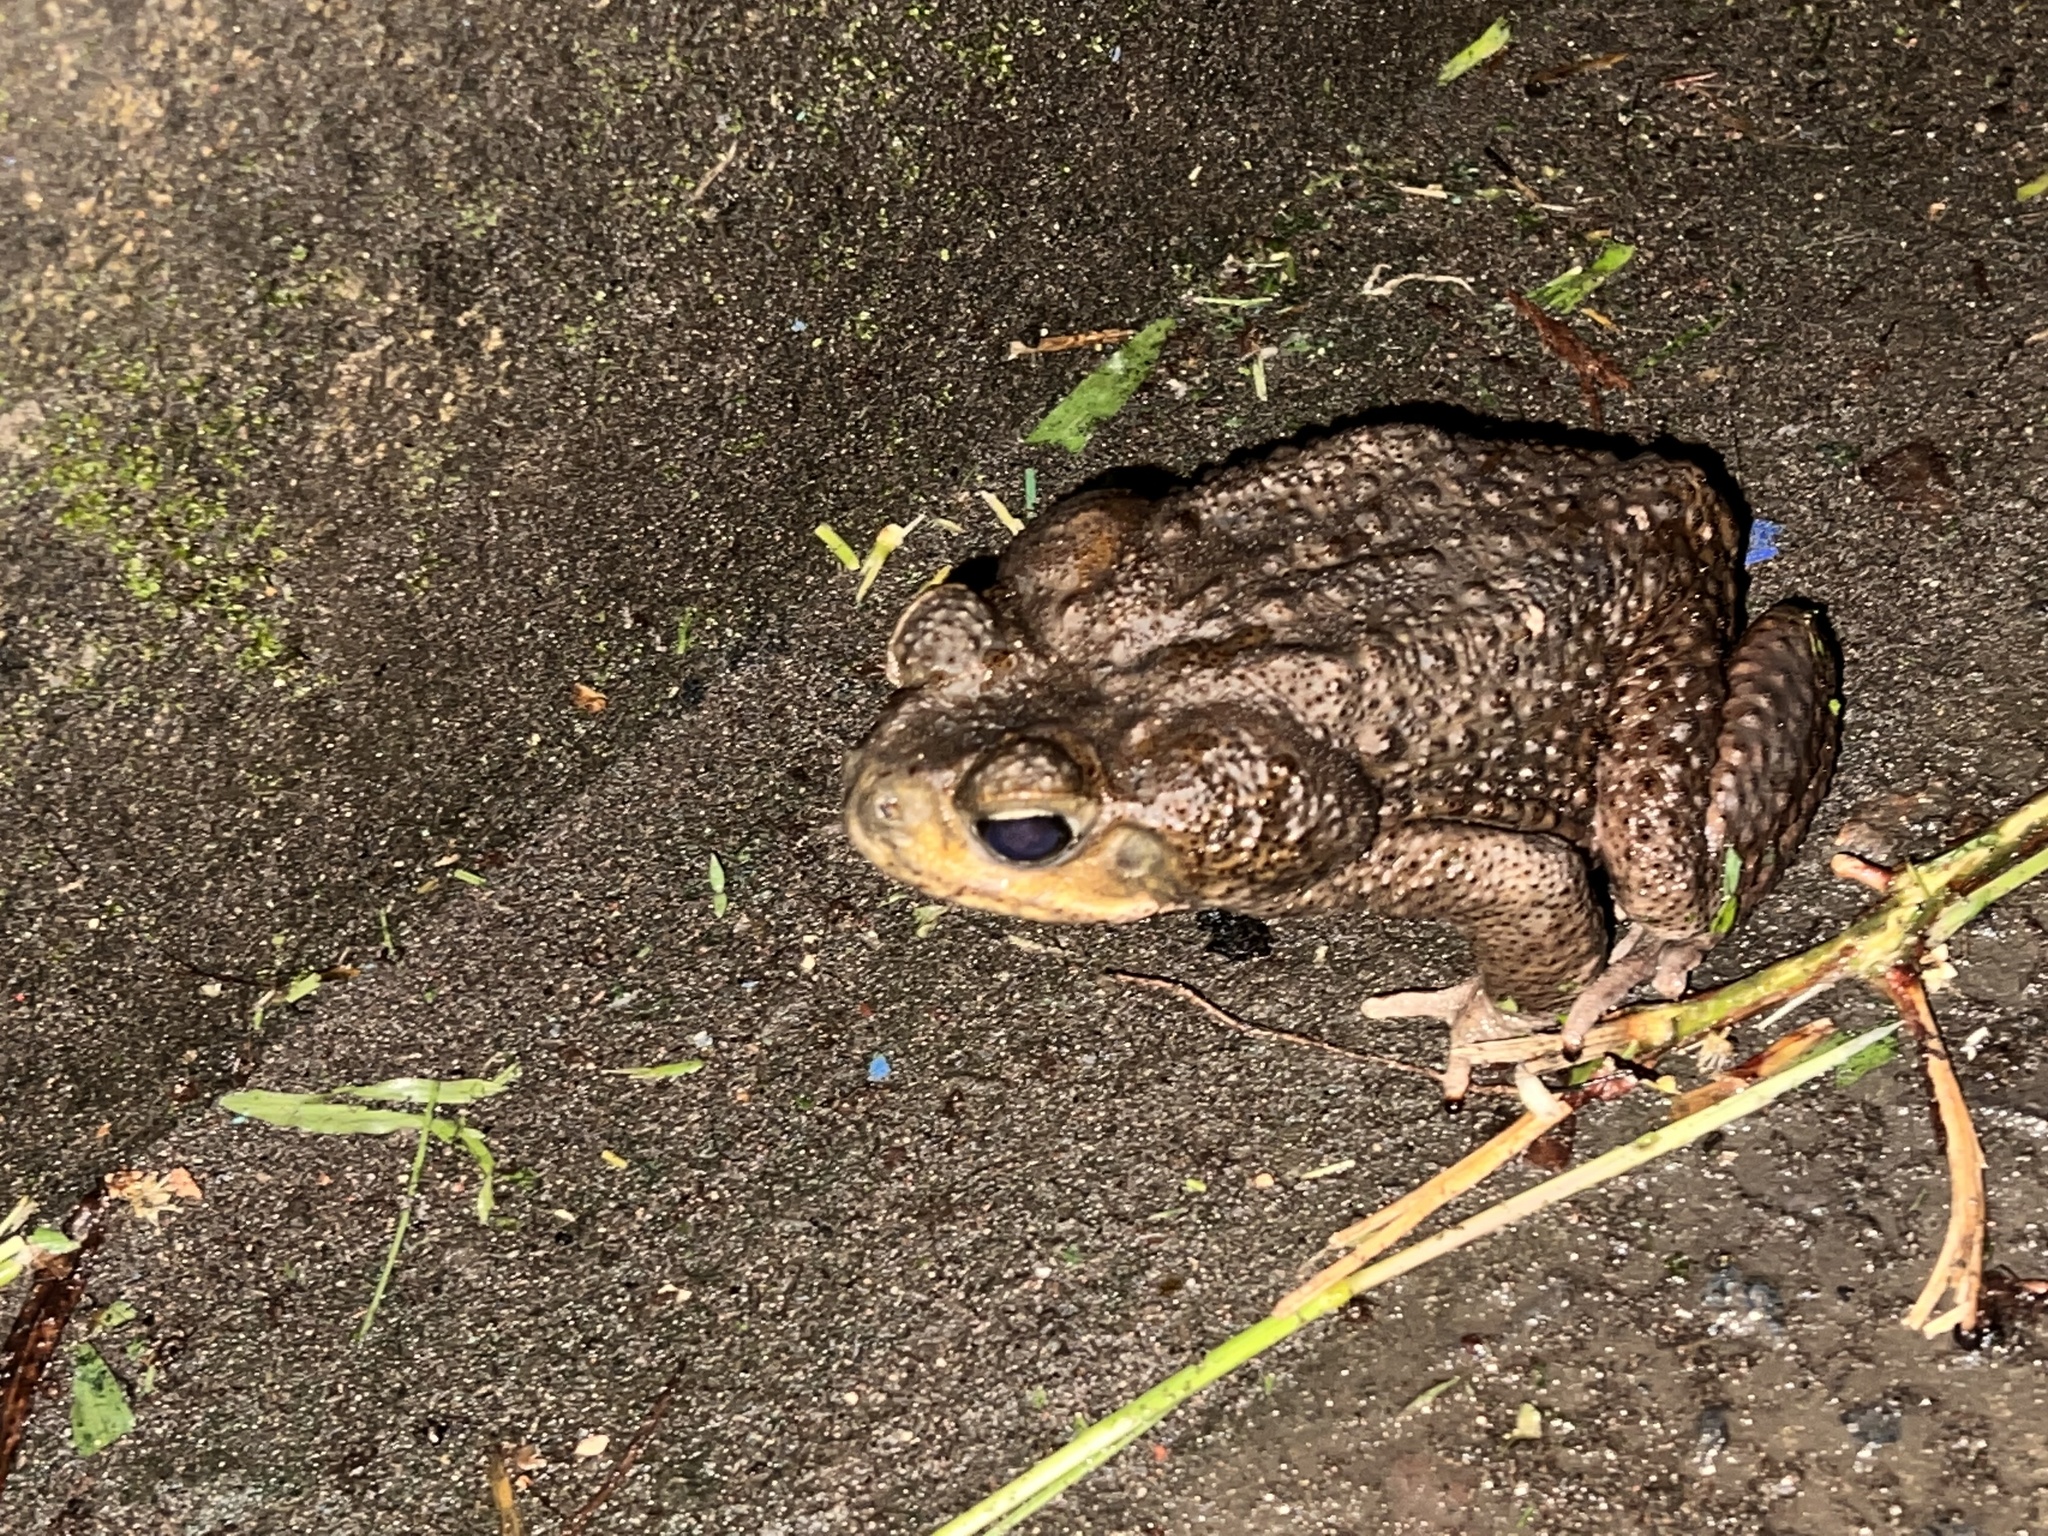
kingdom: Animalia
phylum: Chordata
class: Amphibia
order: Anura
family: Bufonidae
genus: Rhinella
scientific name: Rhinella horribilis
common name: Mesoamerican cane toad
